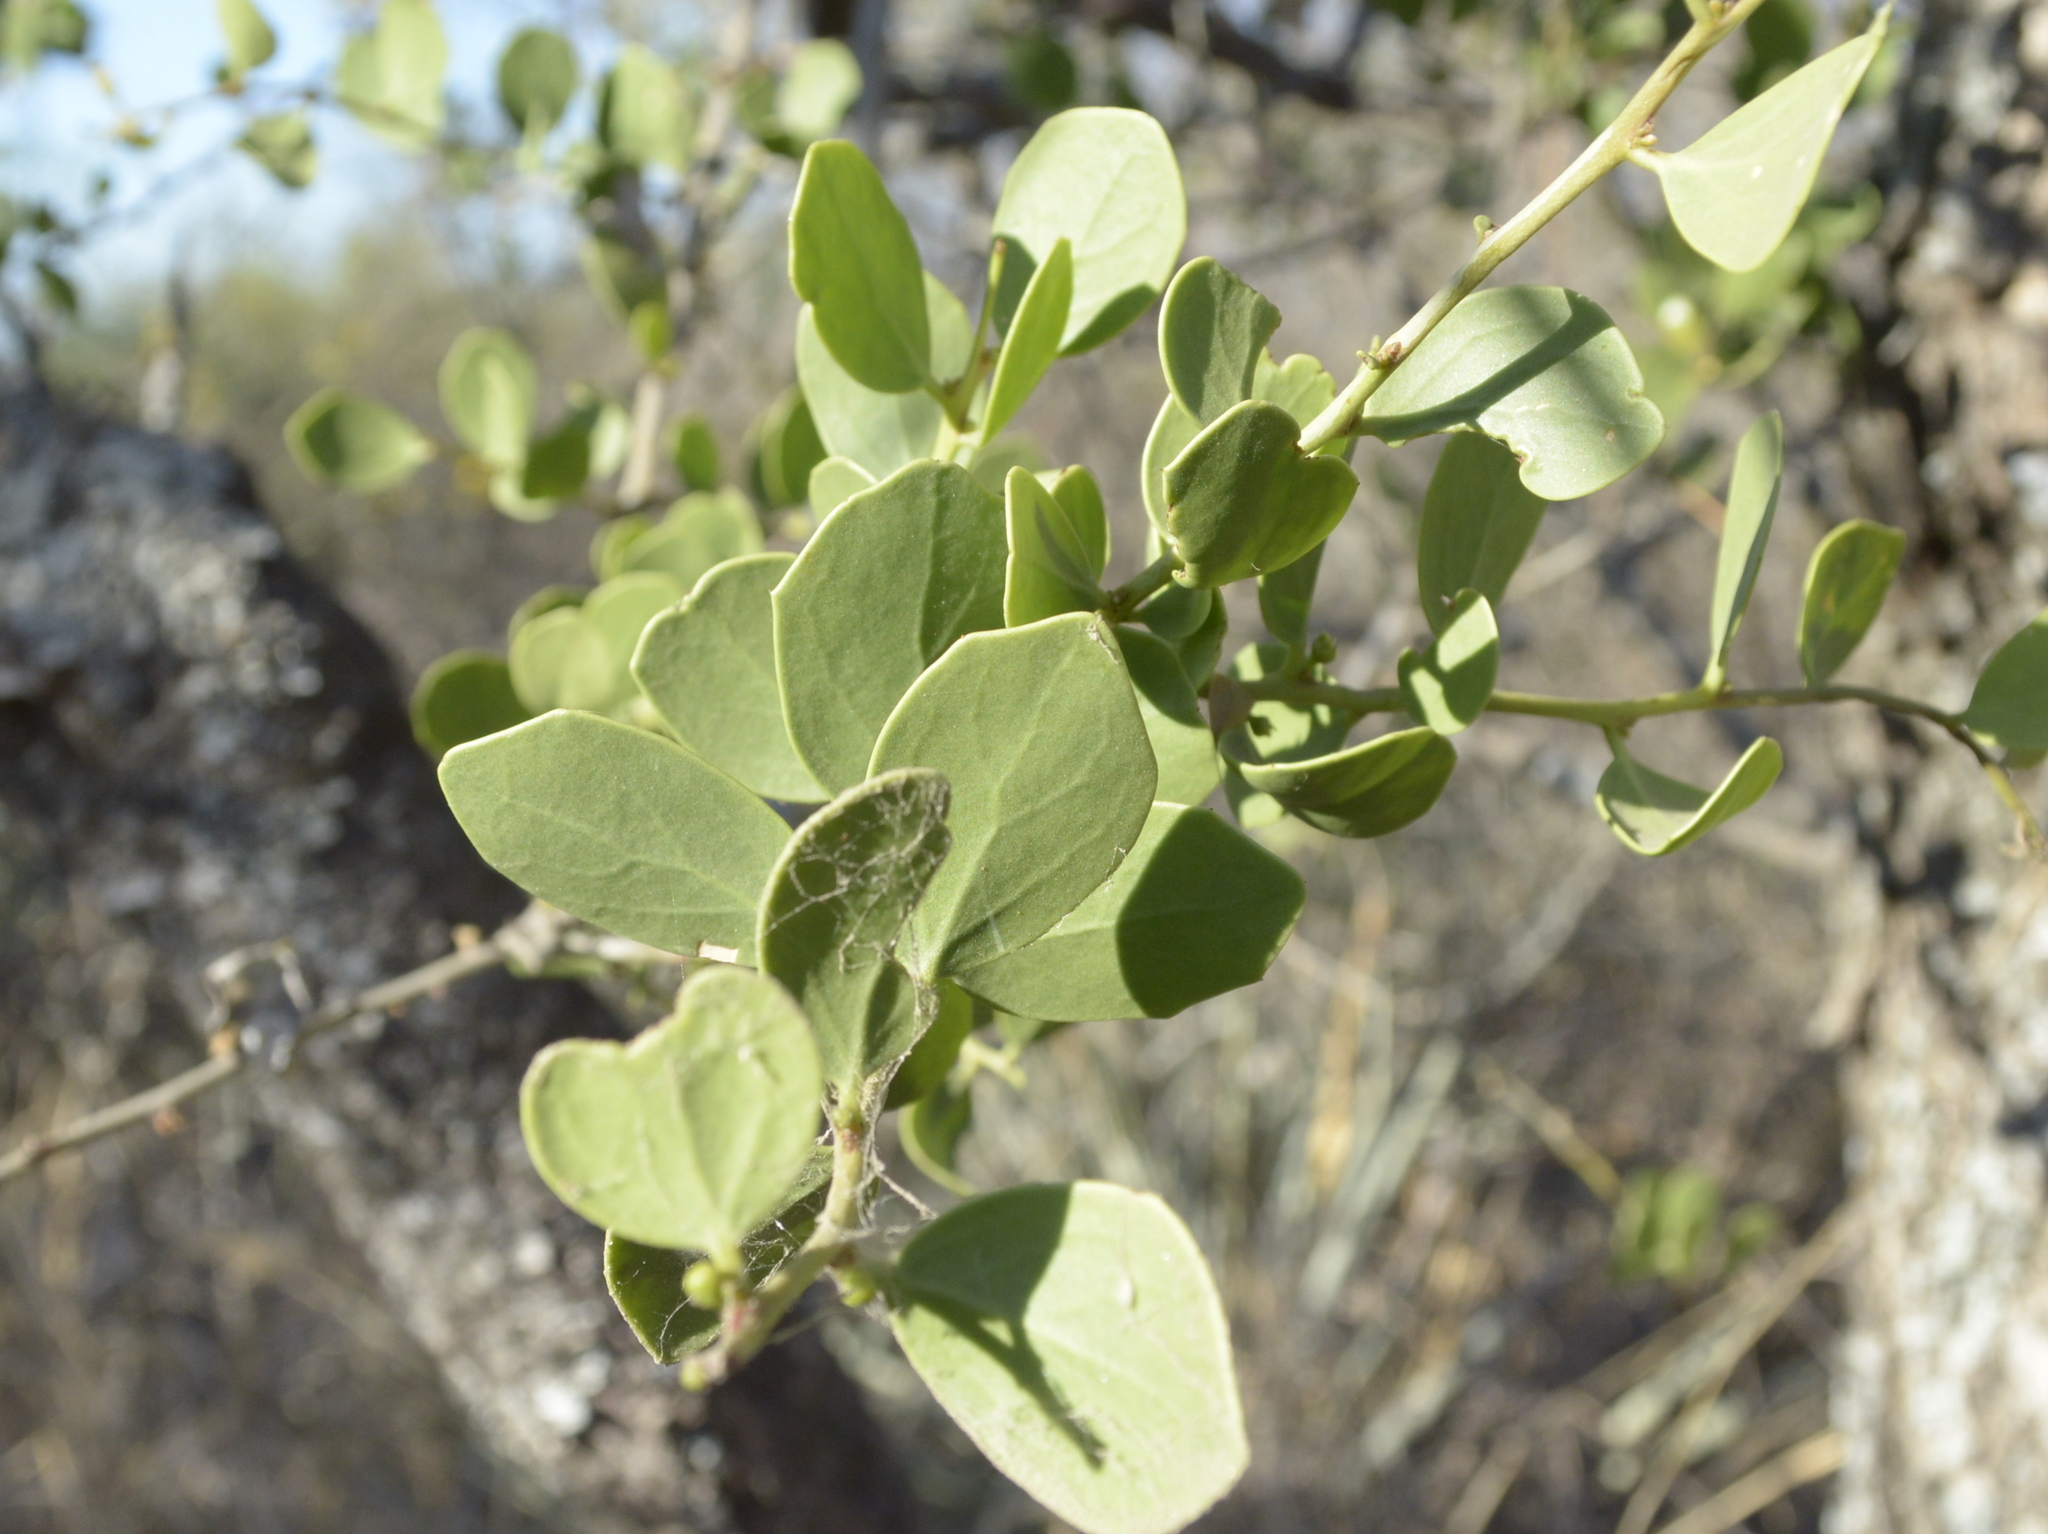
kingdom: Plantae
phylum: Tracheophyta
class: Magnoliopsida
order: Celastrales
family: Celastraceae
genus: Tricerma
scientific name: Tricerma vitis-idaeum
